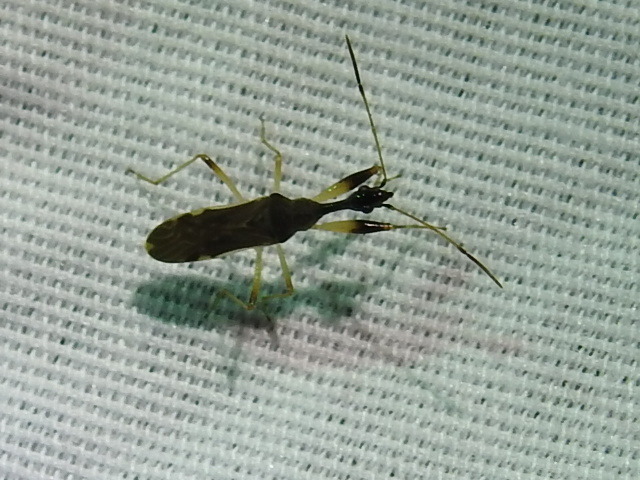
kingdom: Animalia
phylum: Arthropoda
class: Insecta
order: Hemiptera
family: Rhyparochromidae
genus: Myodocha
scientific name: Myodocha serripes
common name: Long-necked seed bug
